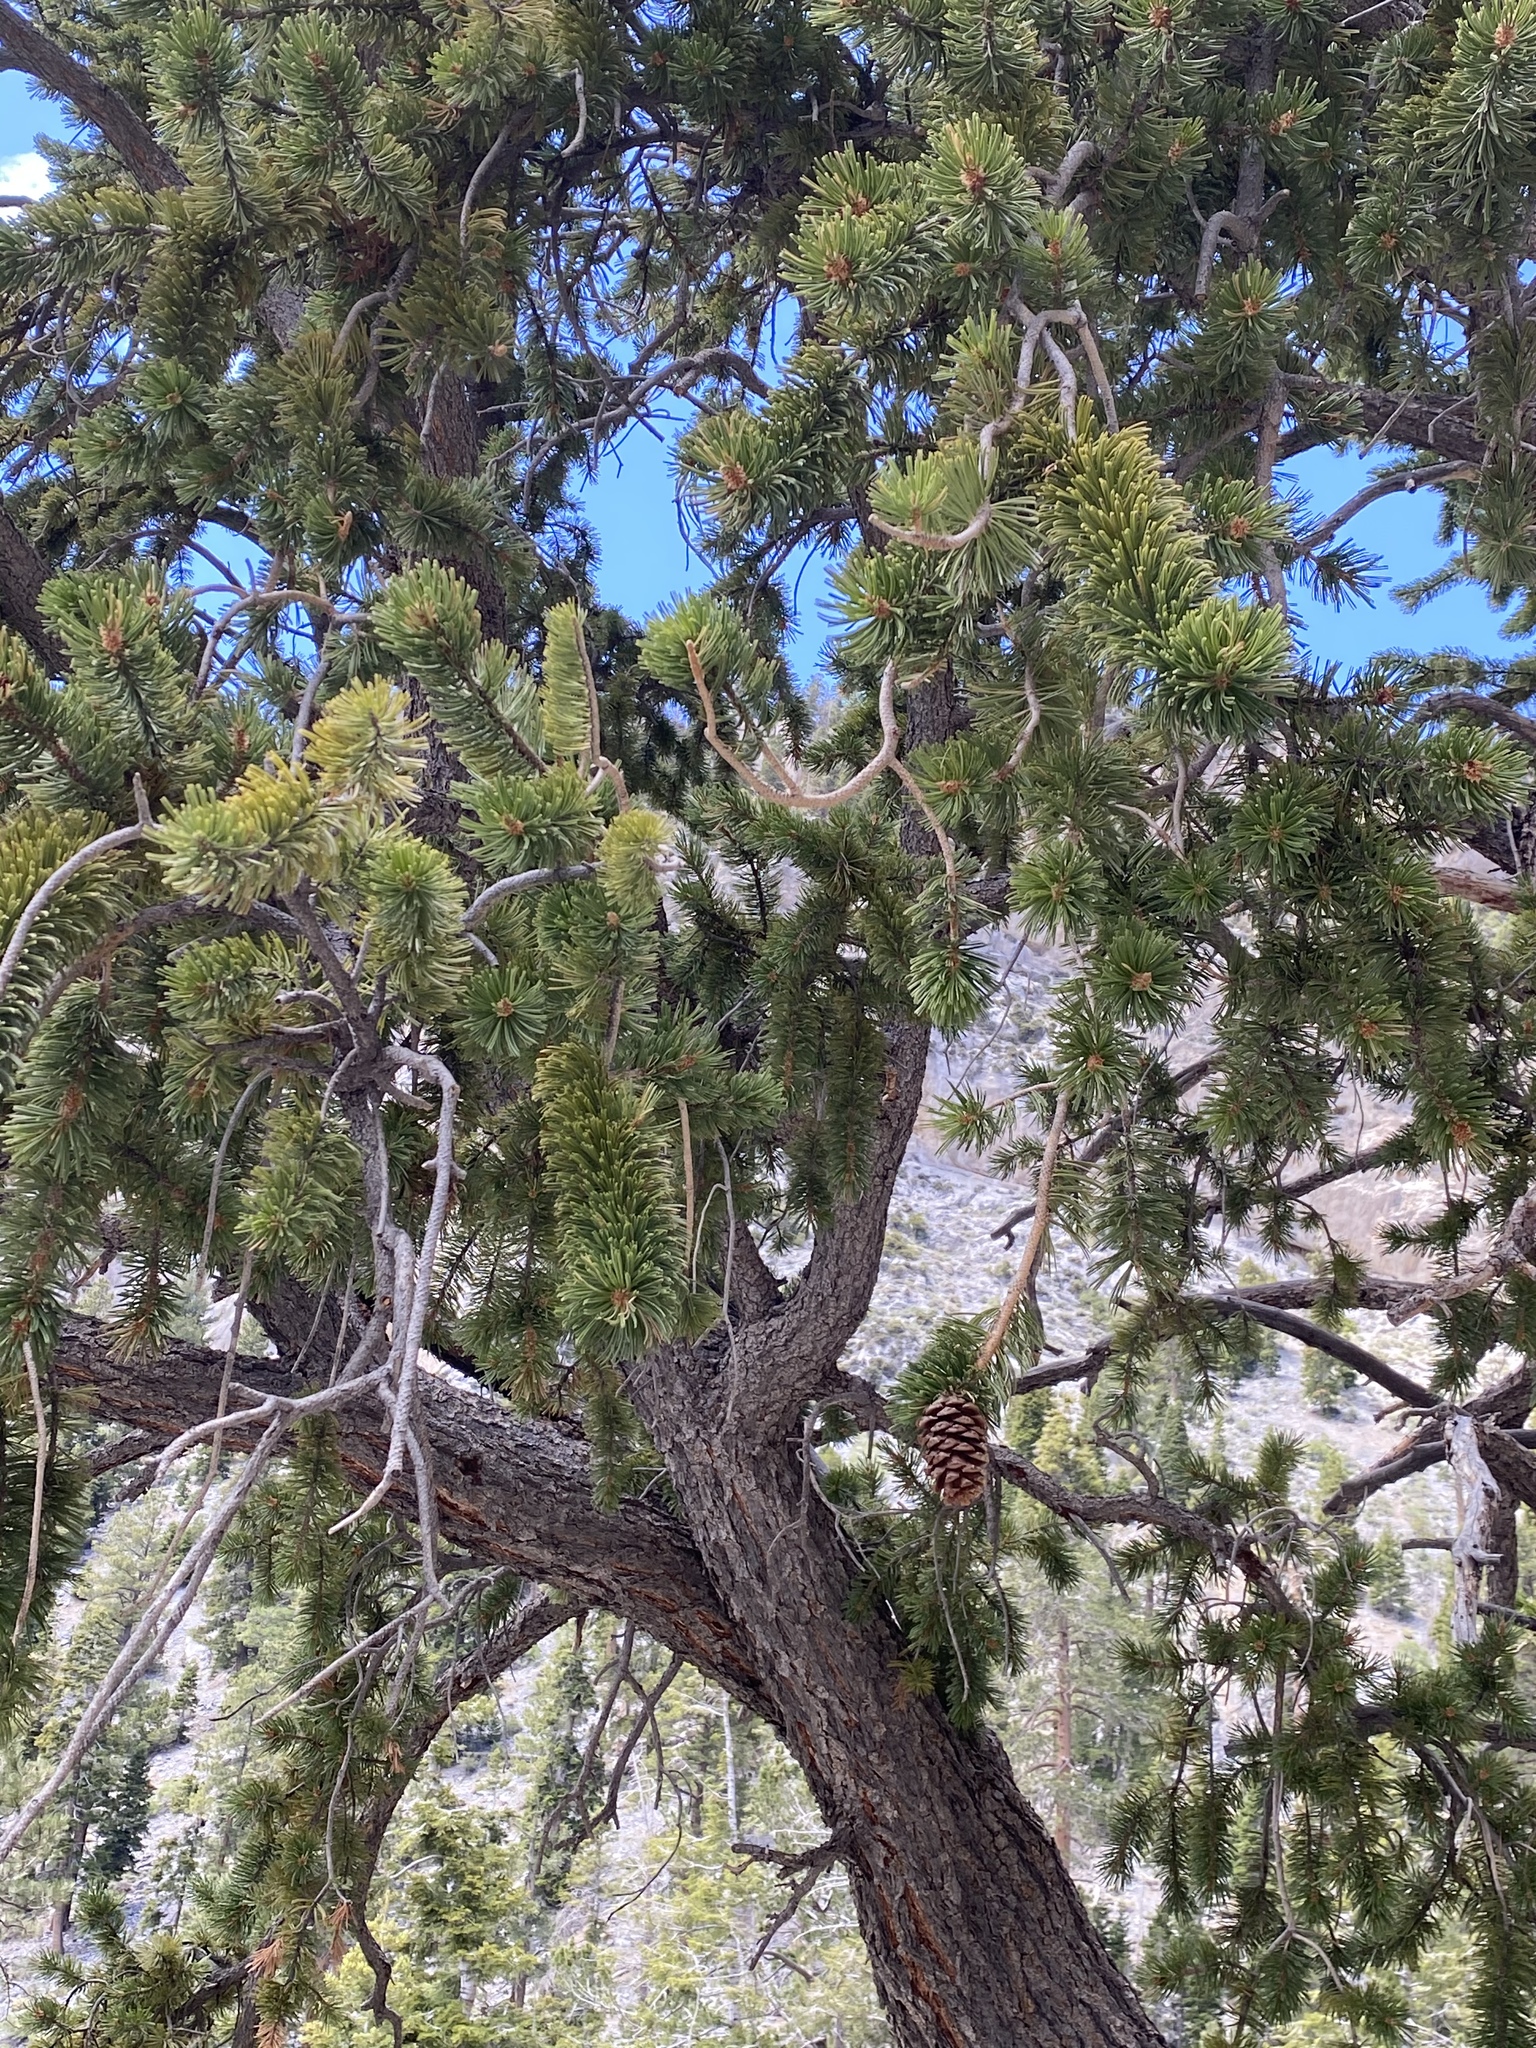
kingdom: Plantae
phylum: Tracheophyta
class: Pinopsida
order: Pinales
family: Pinaceae
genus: Pinus
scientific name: Pinus longaeva
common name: Intermountain bristlecone pine
